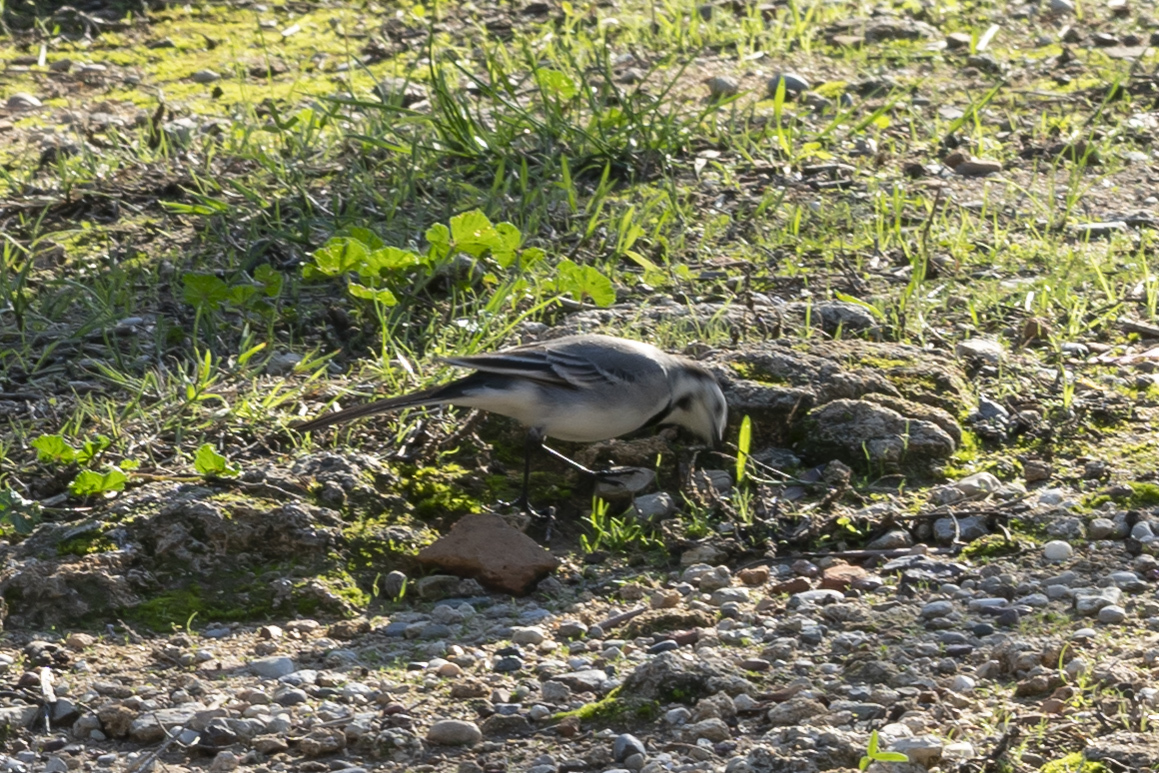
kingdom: Animalia
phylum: Chordata
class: Aves
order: Passeriformes
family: Motacillidae
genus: Motacilla
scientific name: Motacilla alba
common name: White wagtail
